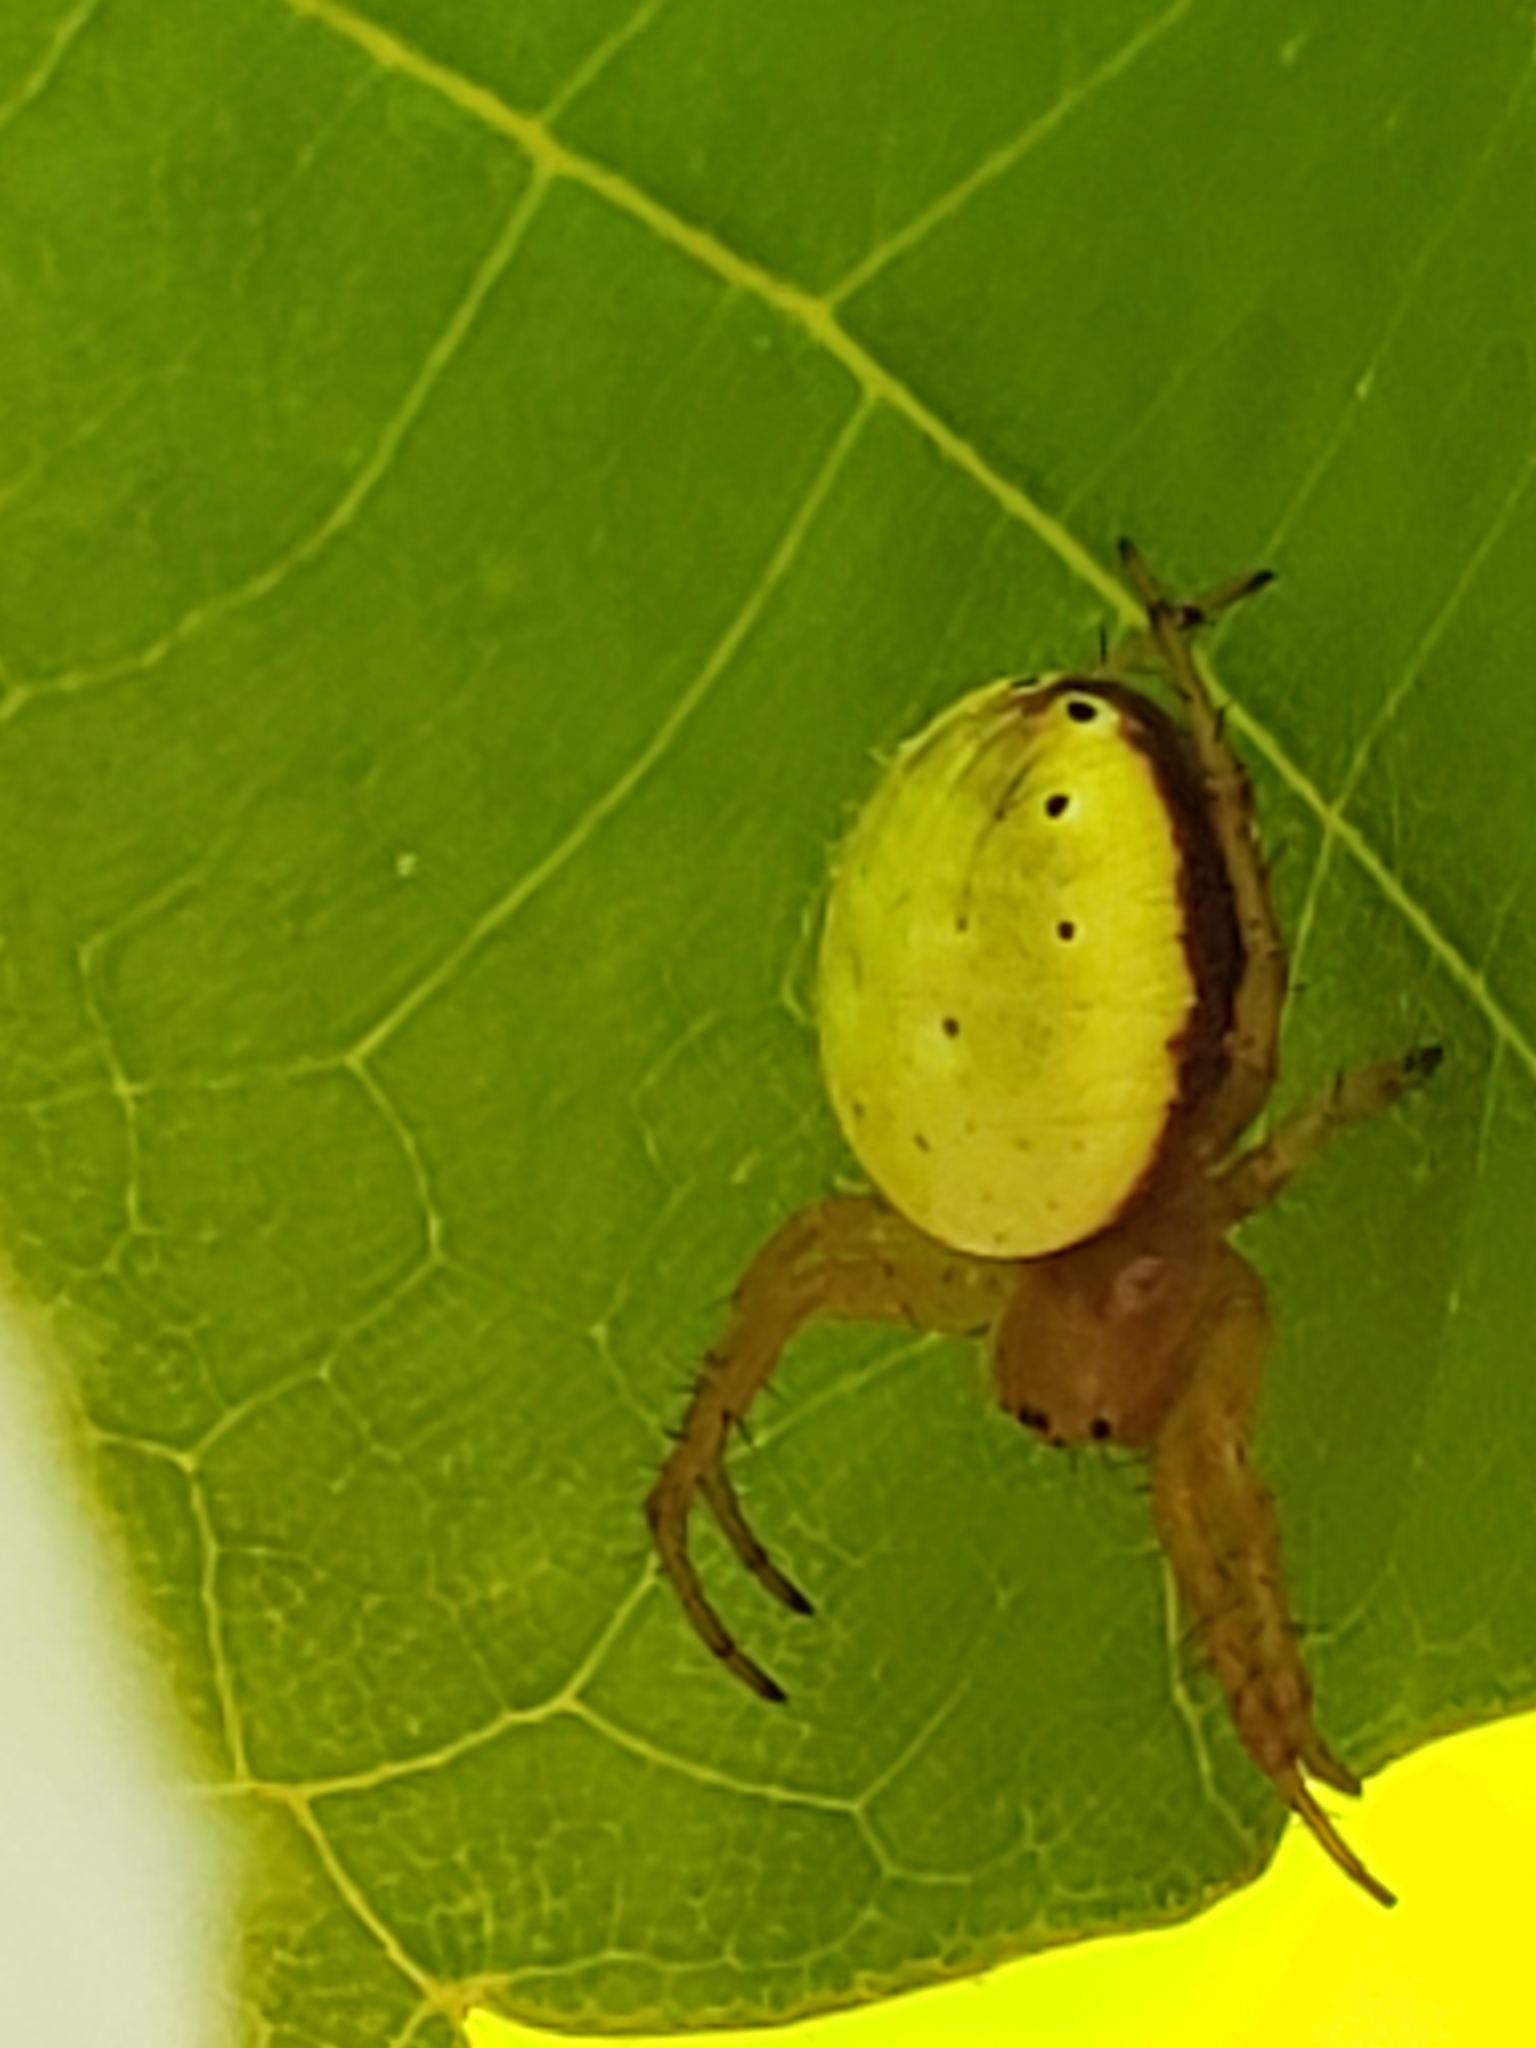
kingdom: Animalia
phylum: Arthropoda
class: Arachnida
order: Araneae
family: Araneidae
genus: Araniella
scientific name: Araniella displicata
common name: Sixspotted orb weaver
